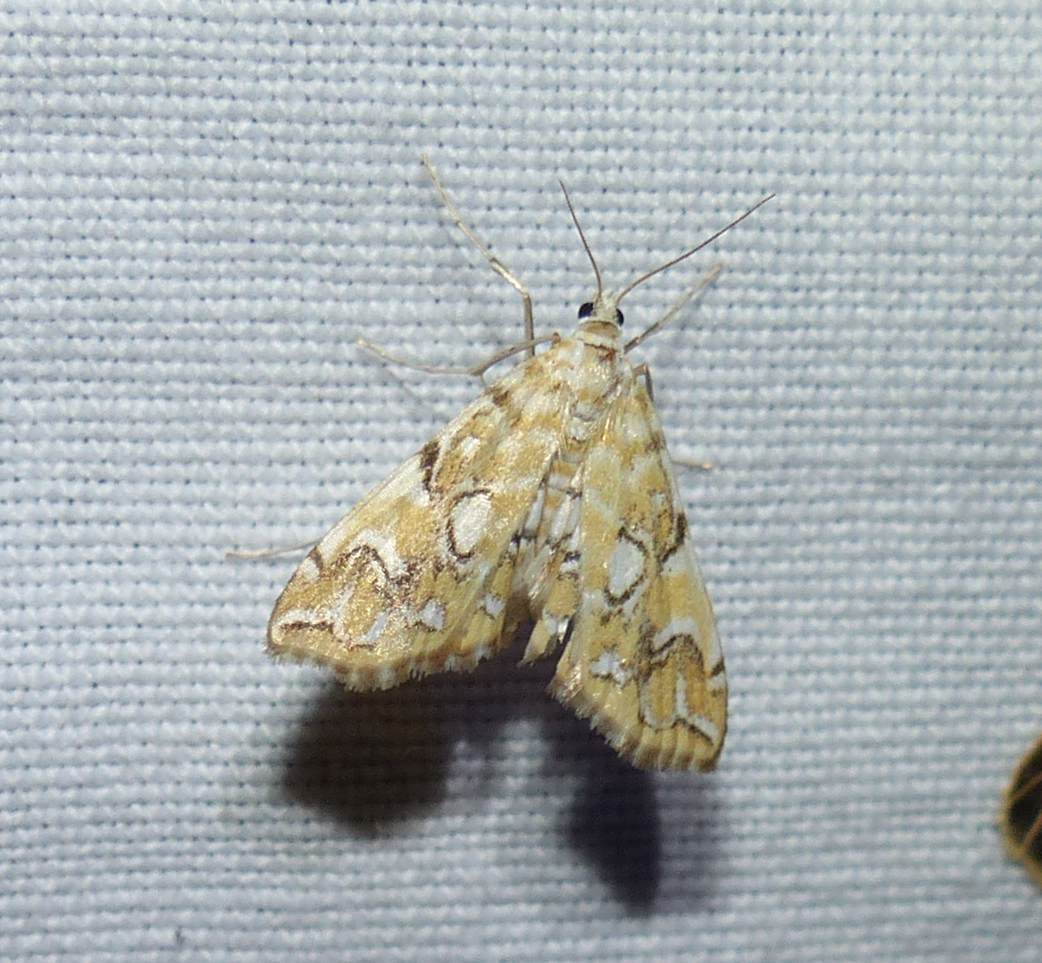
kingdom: Animalia
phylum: Arthropoda
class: Insecta
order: Lepidoptera
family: Crambidae
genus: Elophila
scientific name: Elophila icciusalis
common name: Pondside pyralid moth
